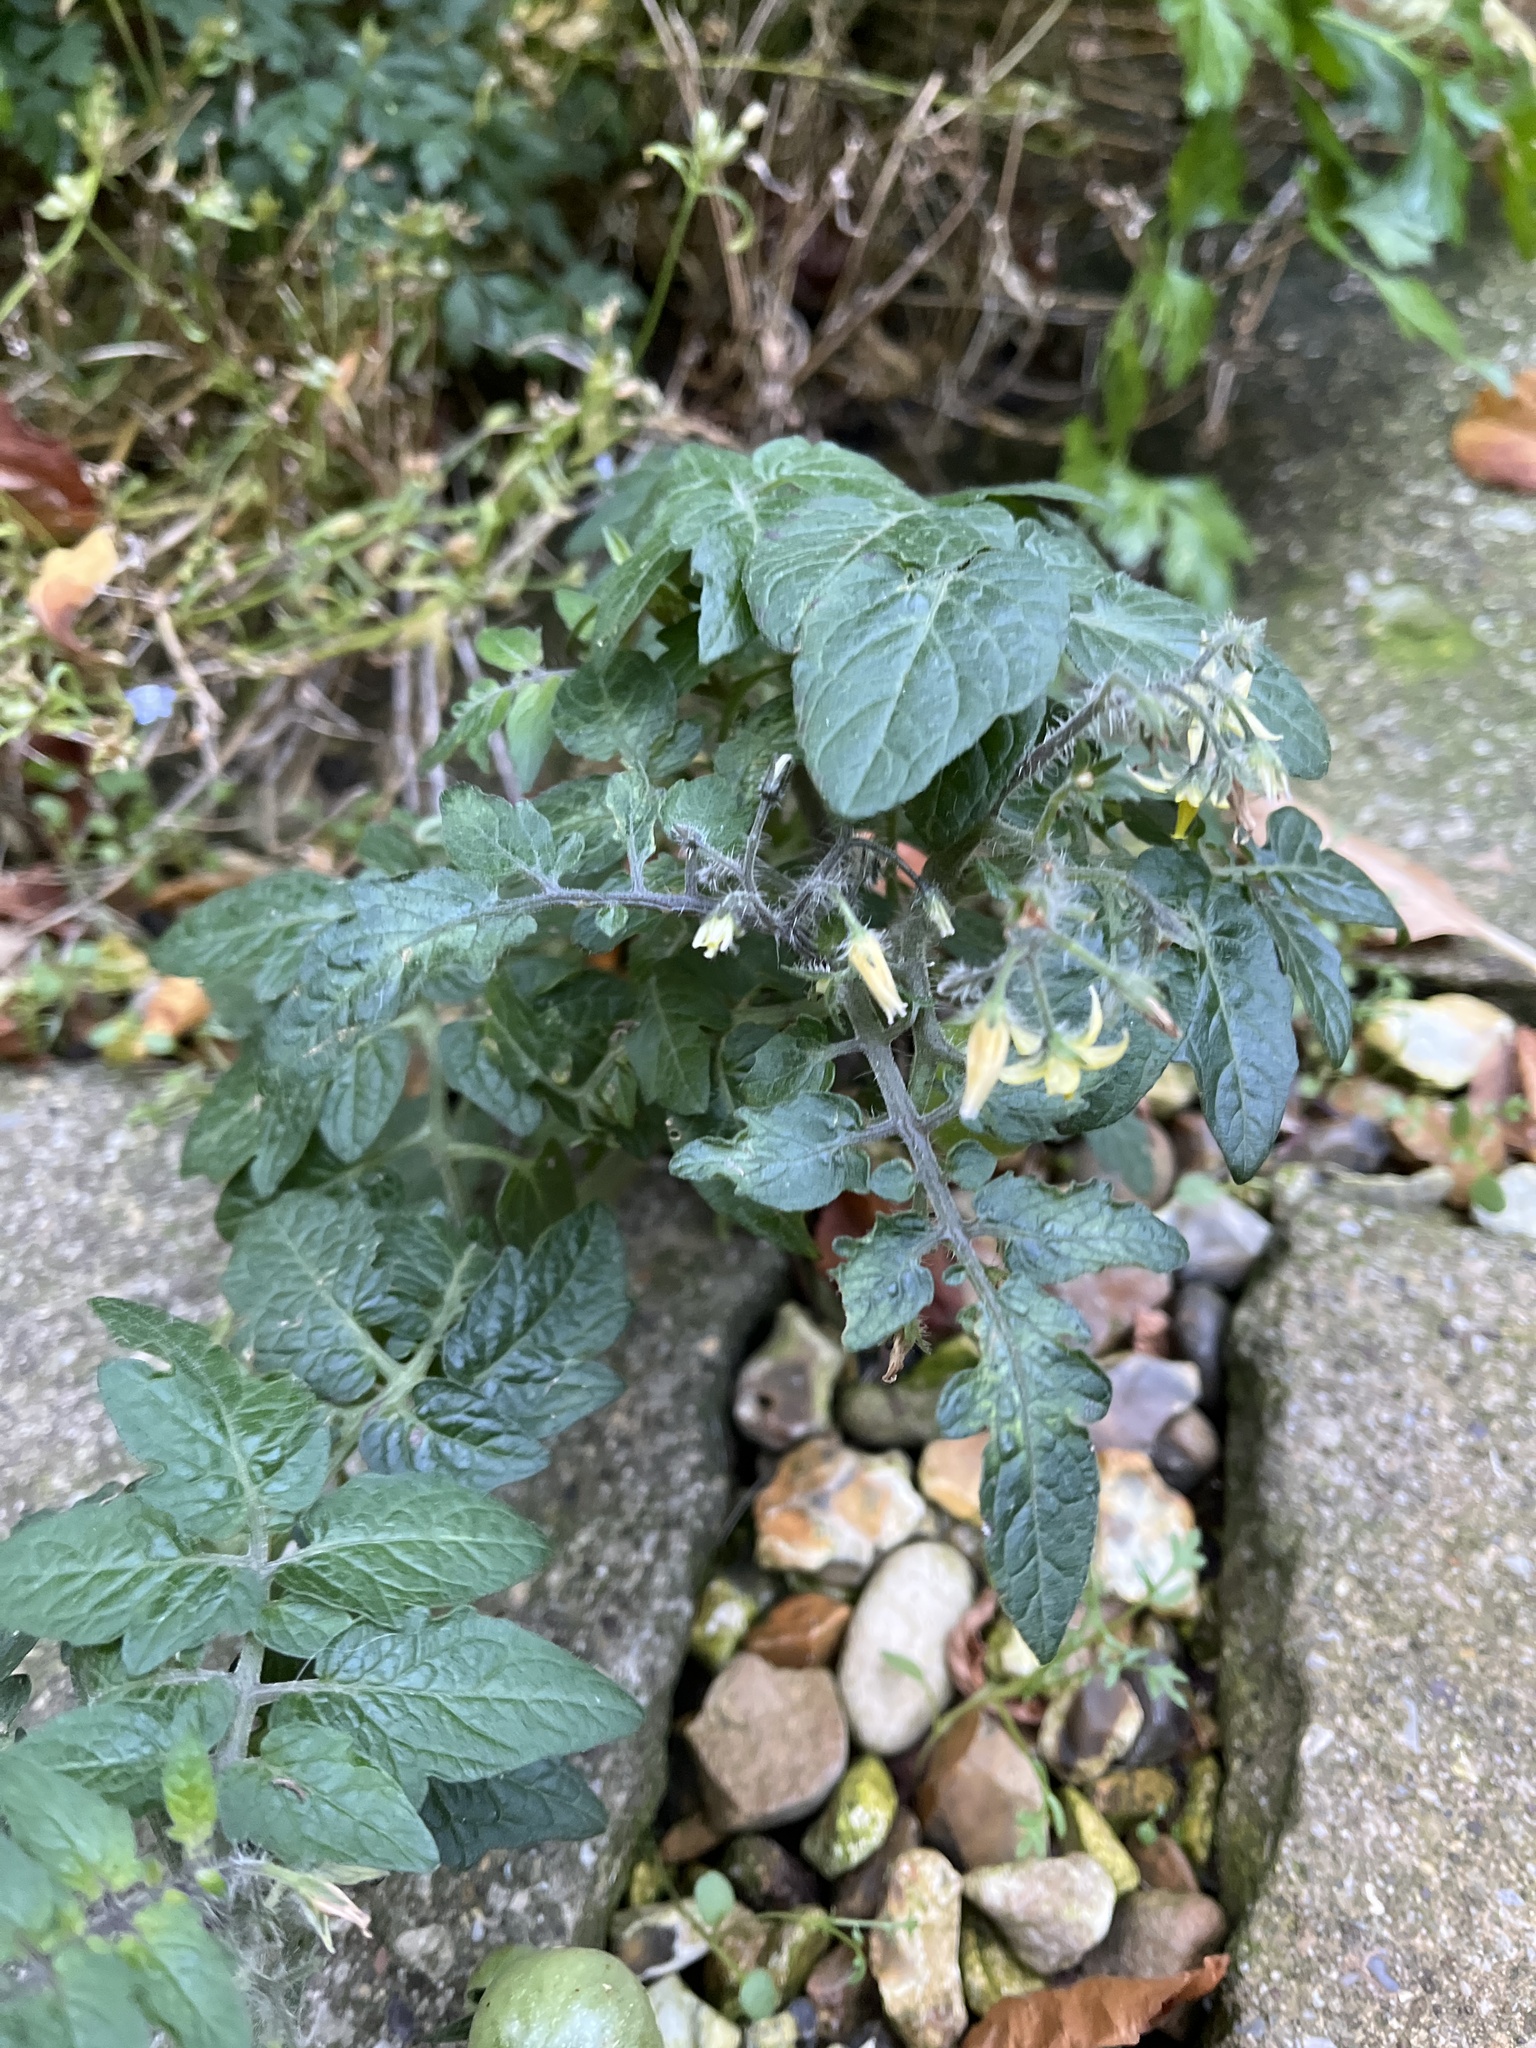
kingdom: Plantae
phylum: Tracheophyta
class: Magnoliopsida
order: Solanales
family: Solanaceae
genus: Solanum
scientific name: Solanum lycopersicum
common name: Garden tomato
